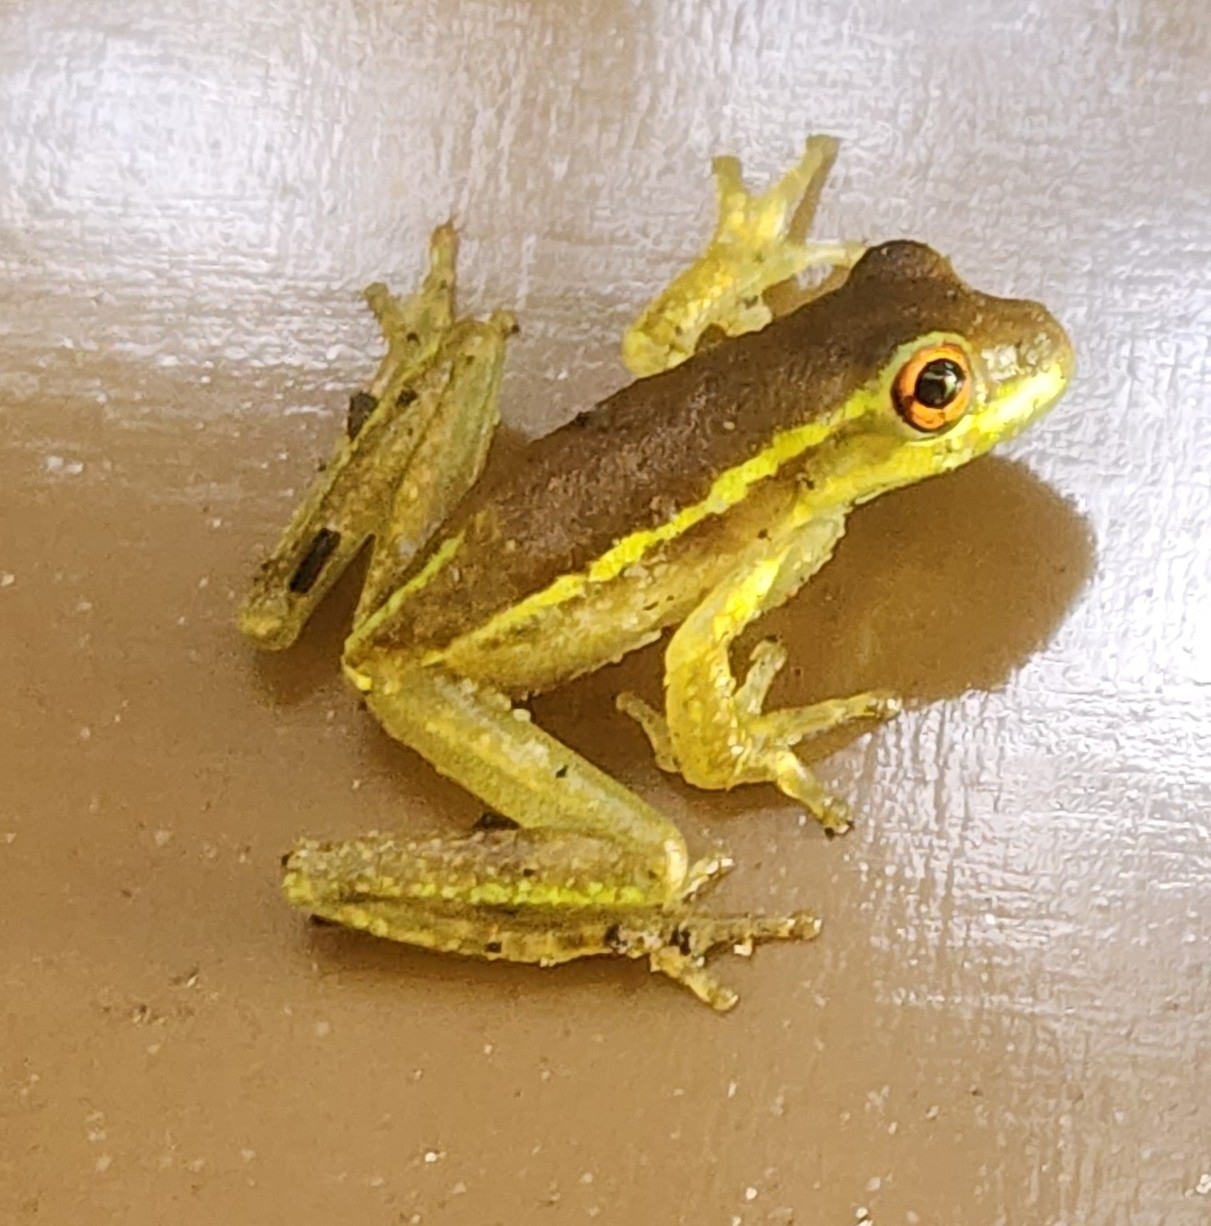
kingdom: Animalia
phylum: Chordata
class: Amphibia
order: Anura
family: Hylidae
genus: Osteopilus
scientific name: Osteopilus septentrionalis
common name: Cuban treefrog
